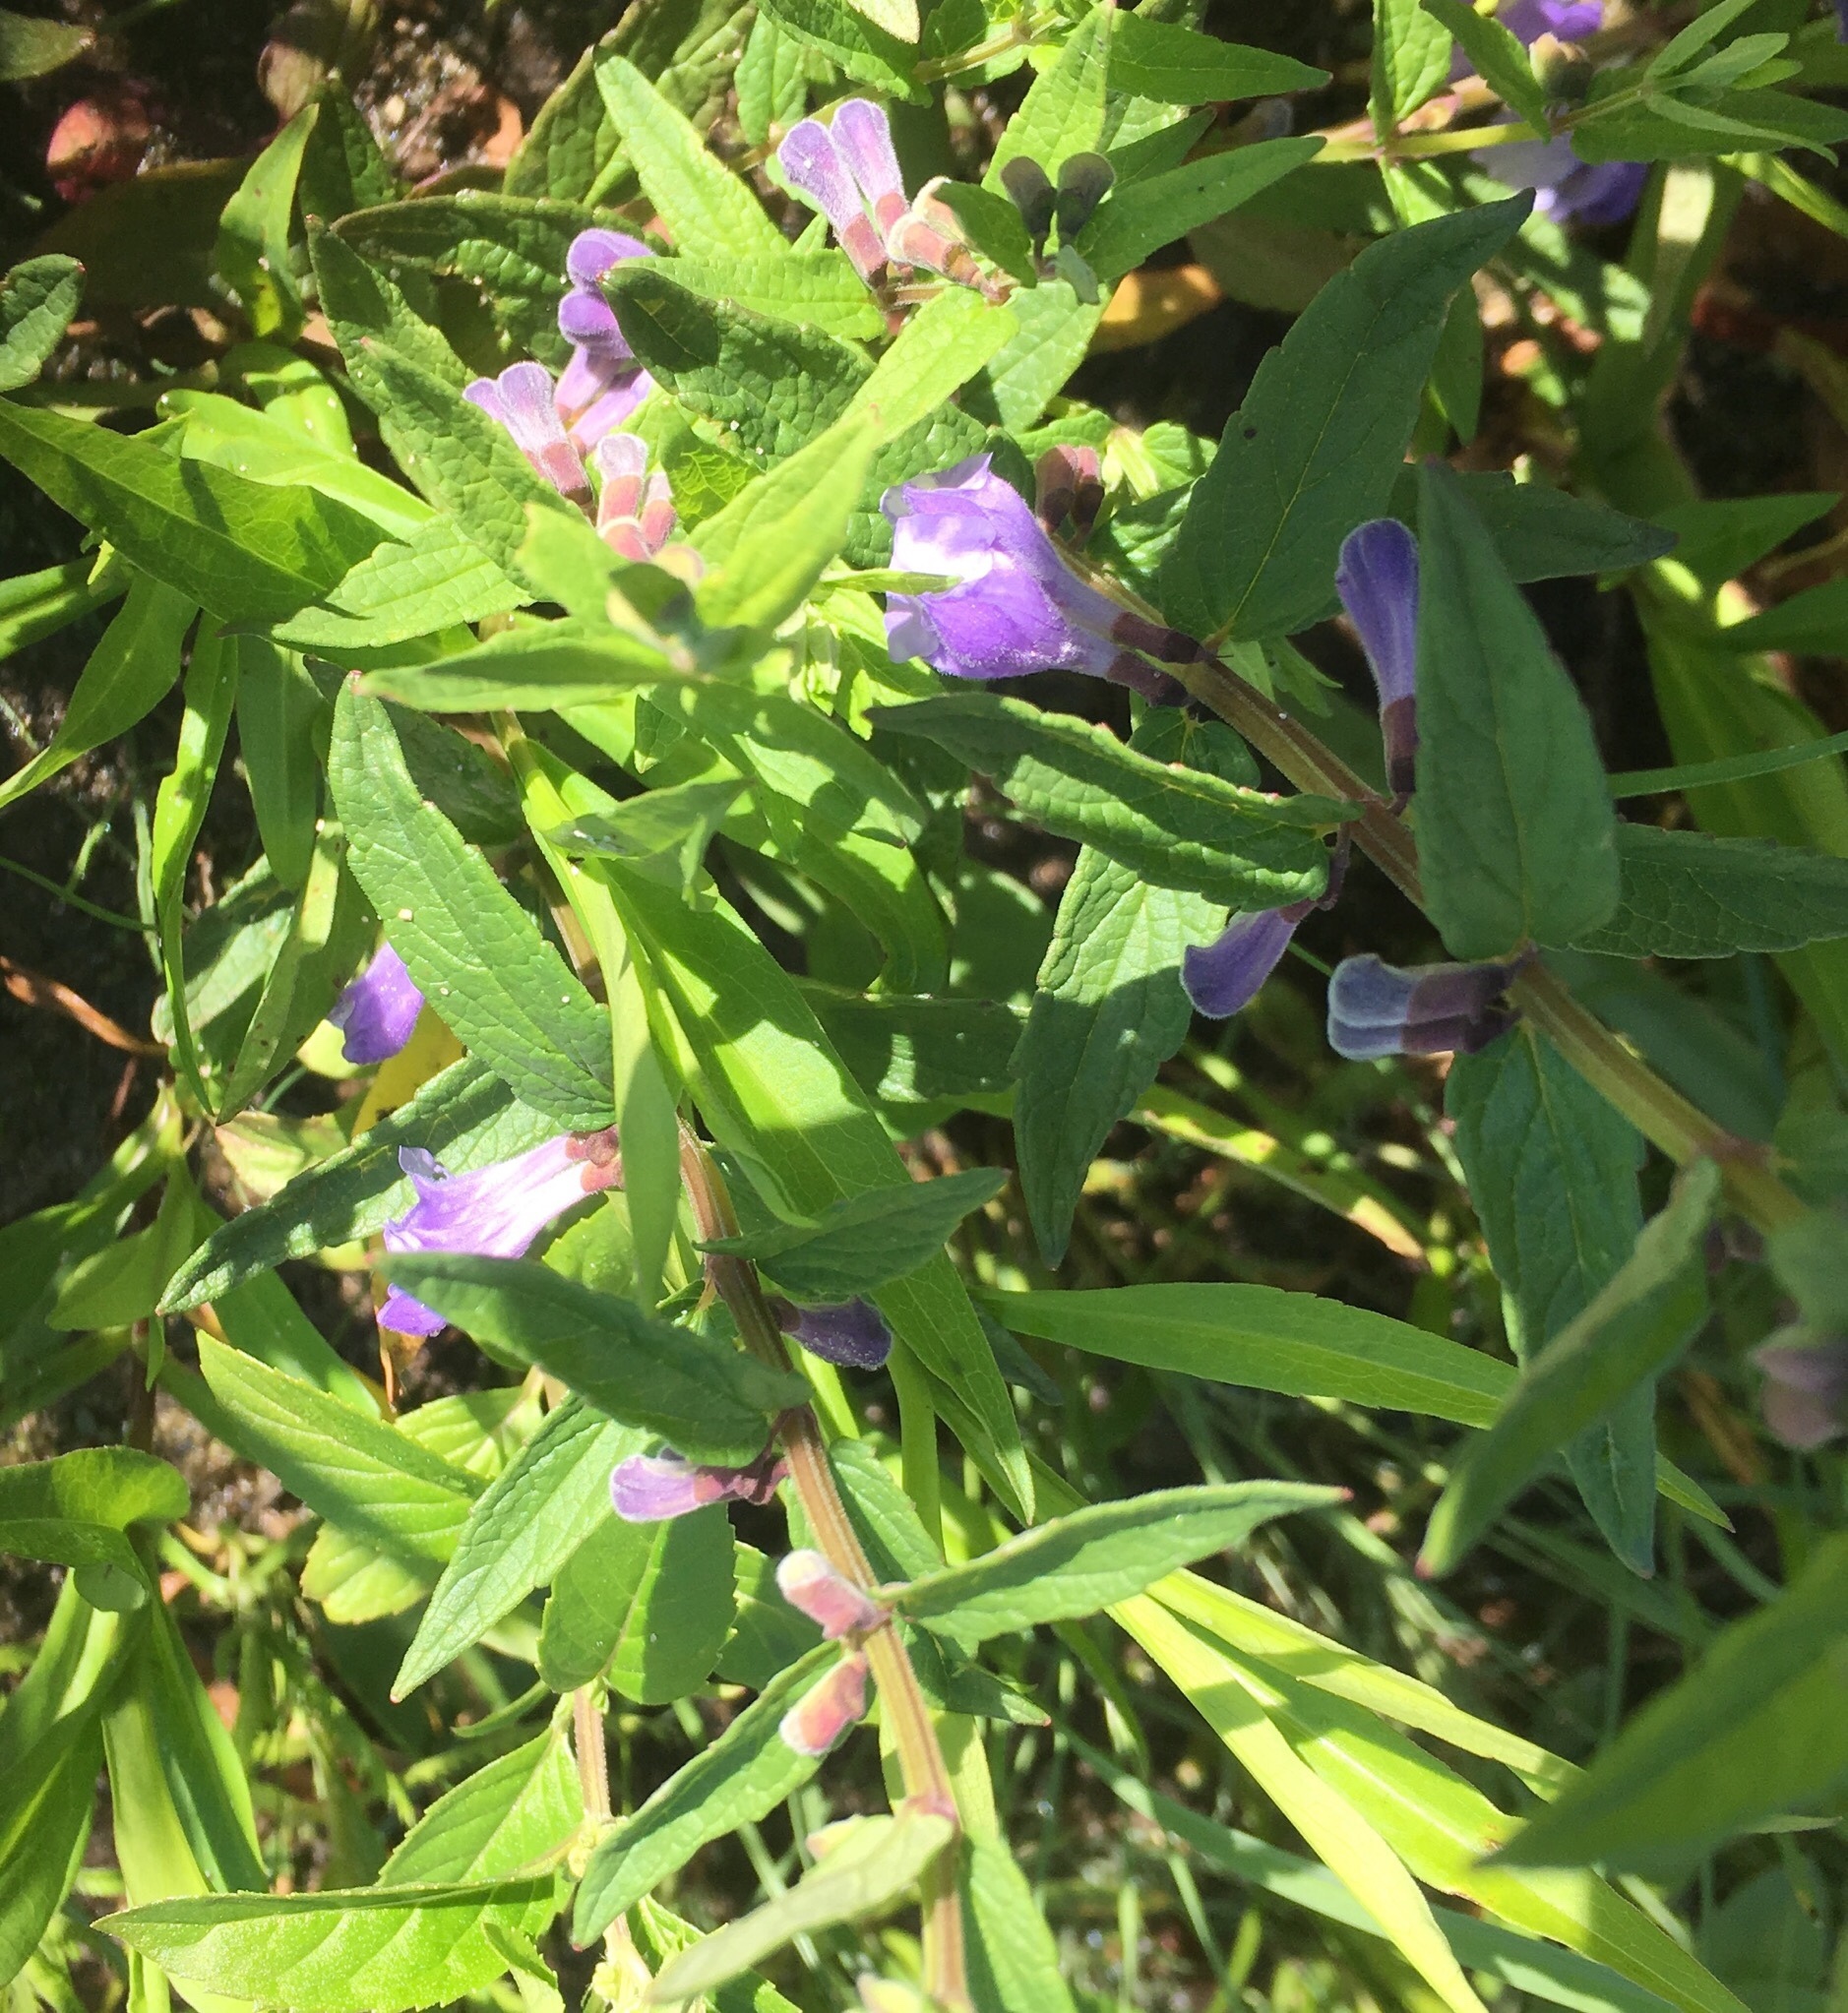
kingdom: Plantae
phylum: Tracheophyta
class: Magnoliopsida
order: Lamiales
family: Lamiaceae
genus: Scutellaria
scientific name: Scutellaria galericulata
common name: Skullcap
